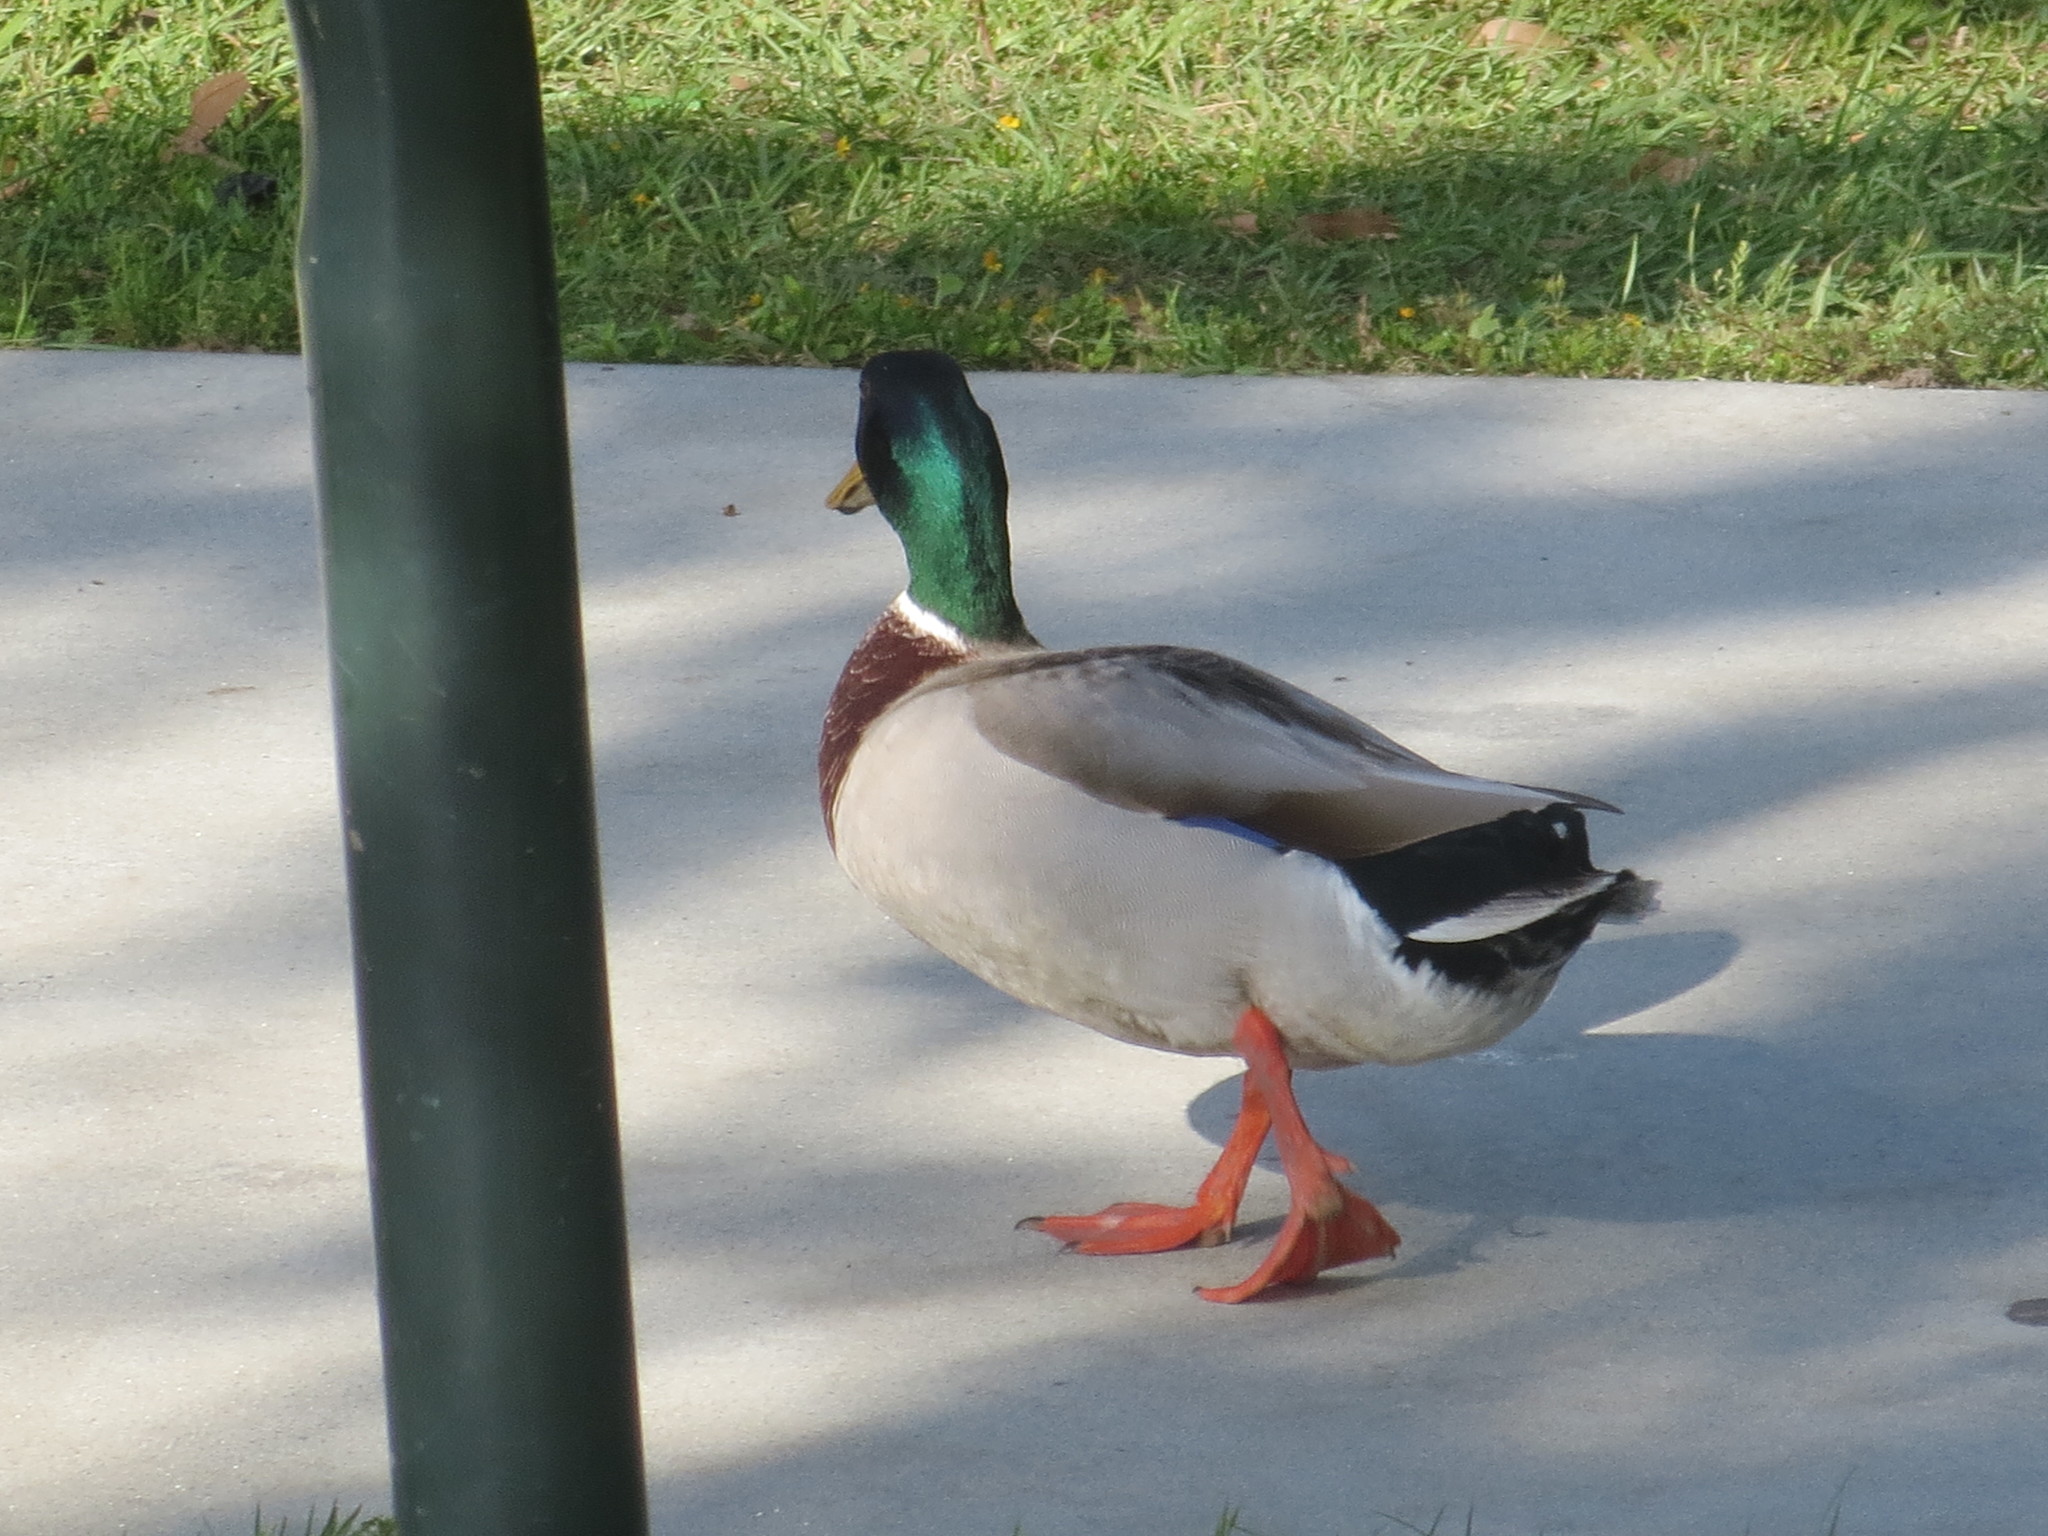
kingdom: Animalia
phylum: Chordata
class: Aves
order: Anseriformes
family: Anatidae
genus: Anas
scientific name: Anas platyrhynchos
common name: Mallard
